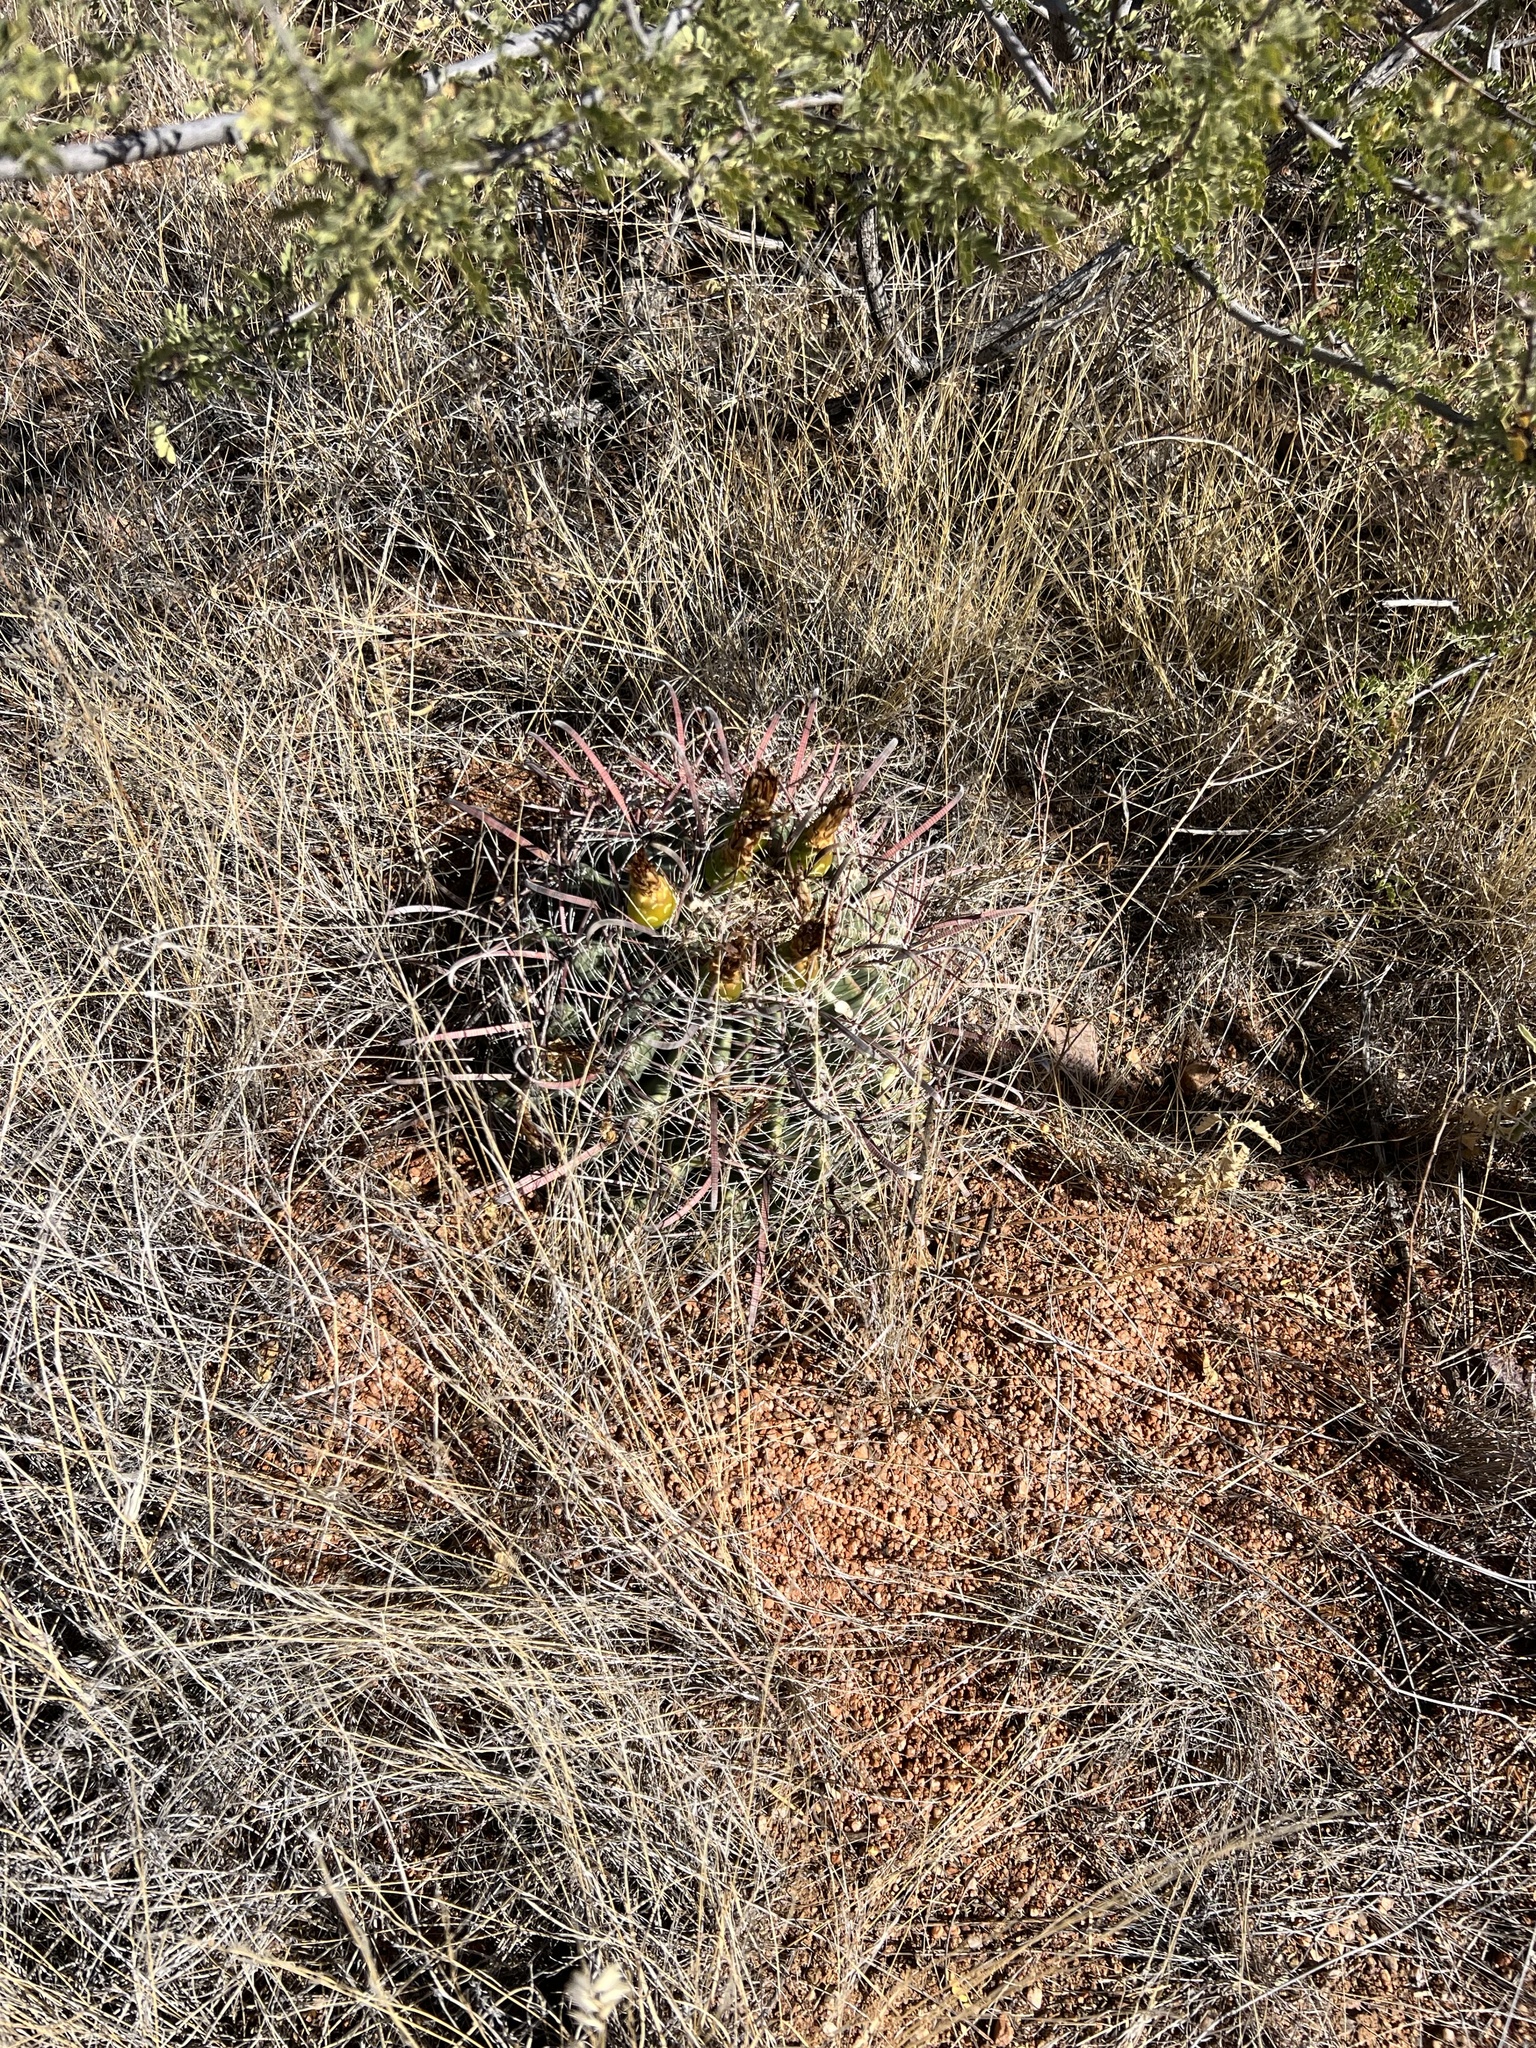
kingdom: Plantae
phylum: Tracheophyta
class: Magnoliopsida
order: Caryophyllales
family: Cactaceae
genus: Ferocactus
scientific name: Ferocactus wislizeni
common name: Candy barrel cactus
